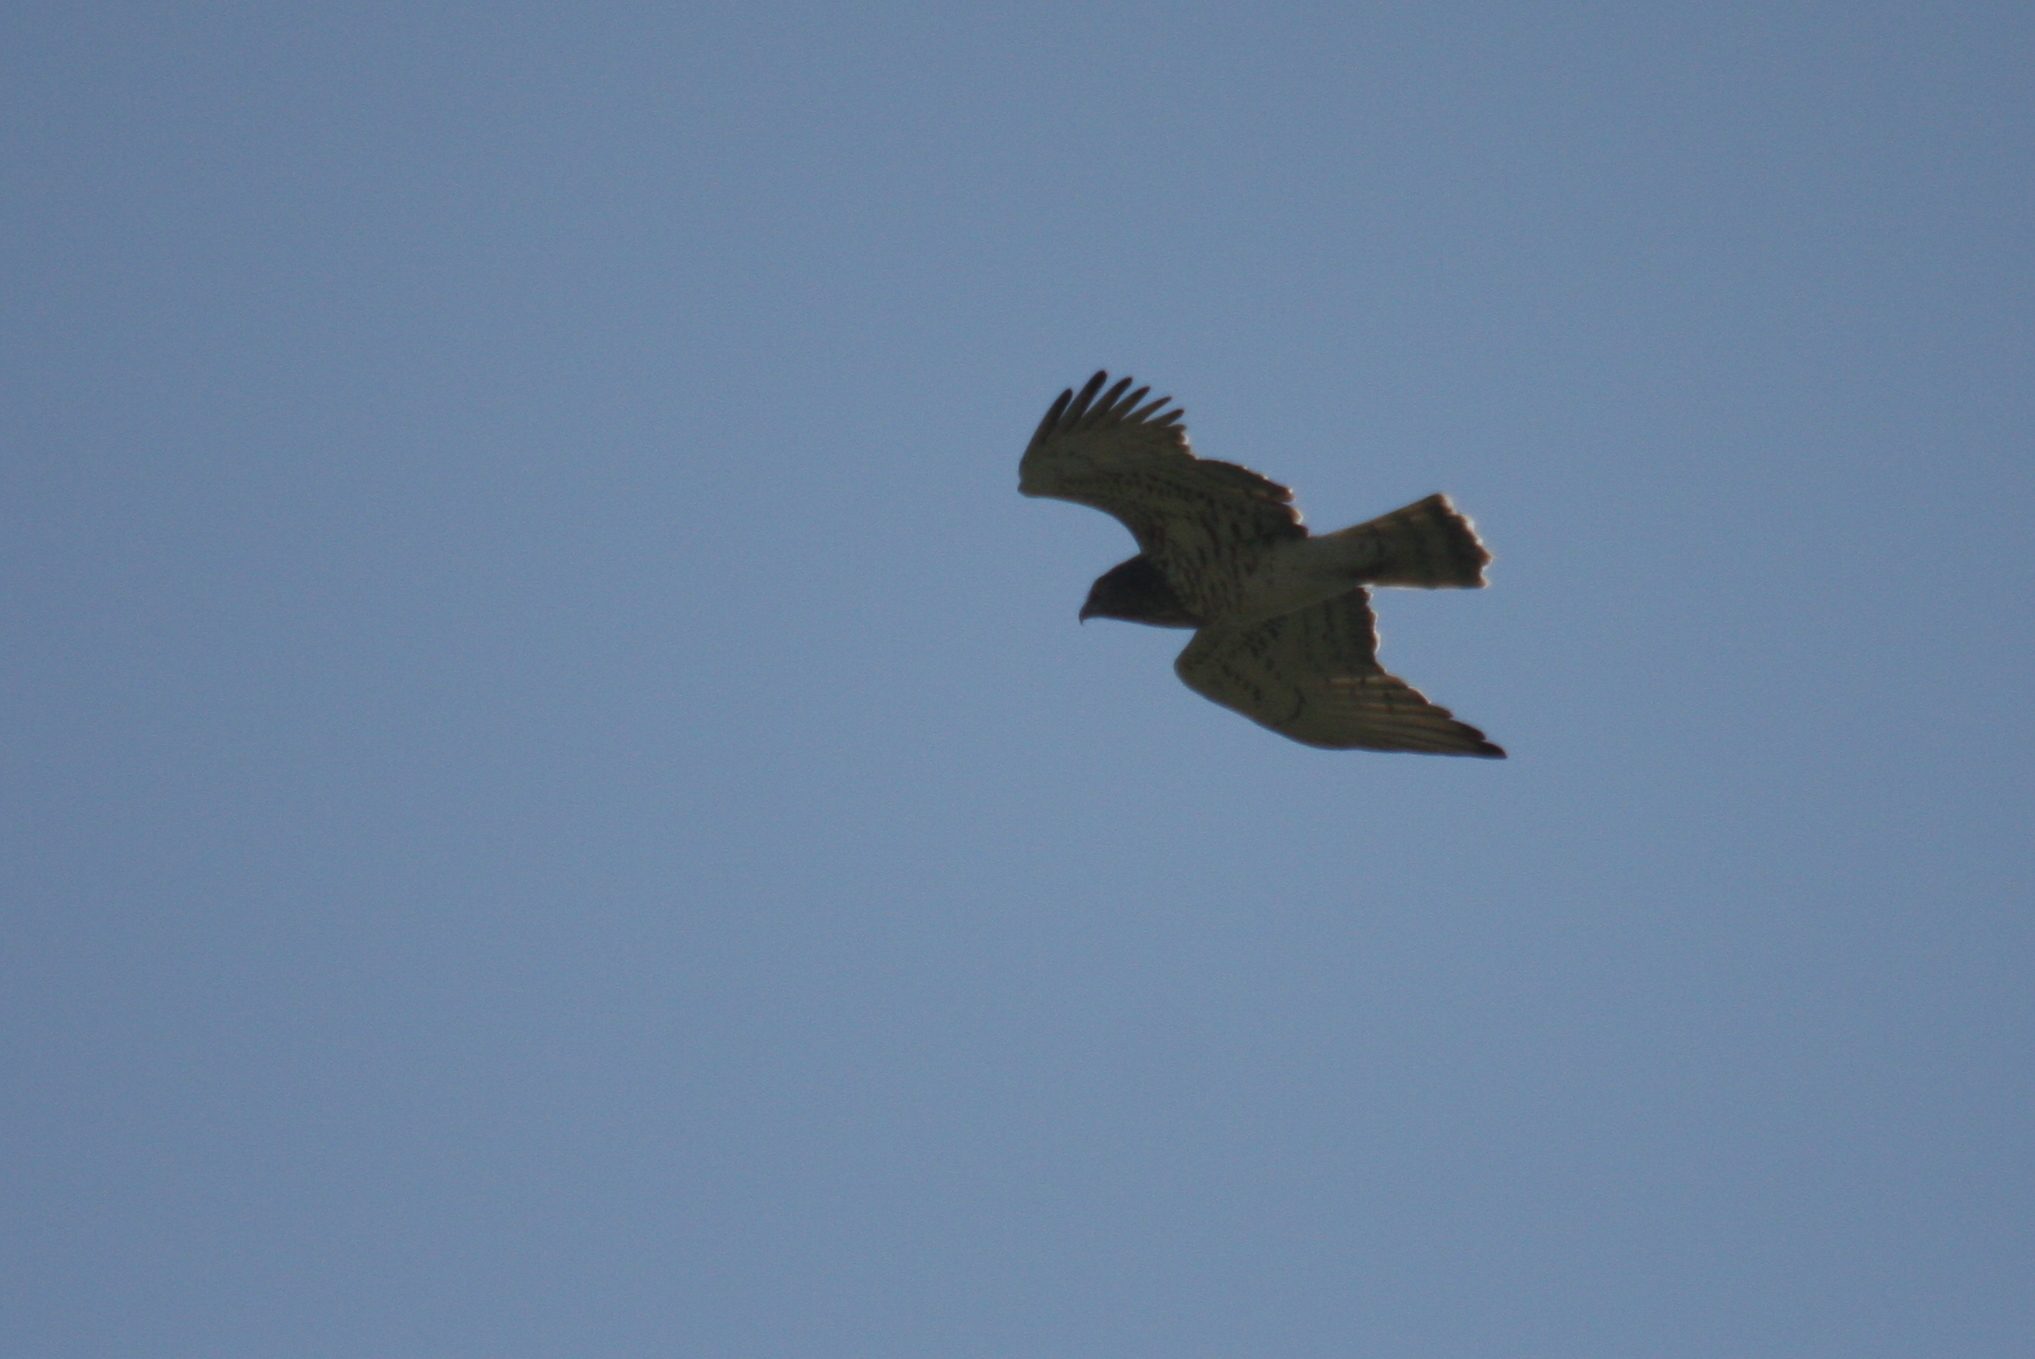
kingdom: Animalia
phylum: Chordata
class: Aves
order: Accipitriformes
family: Accipitridae
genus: Circaetus
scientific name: Circaetus gallicus
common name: Short-toed snake eagle
